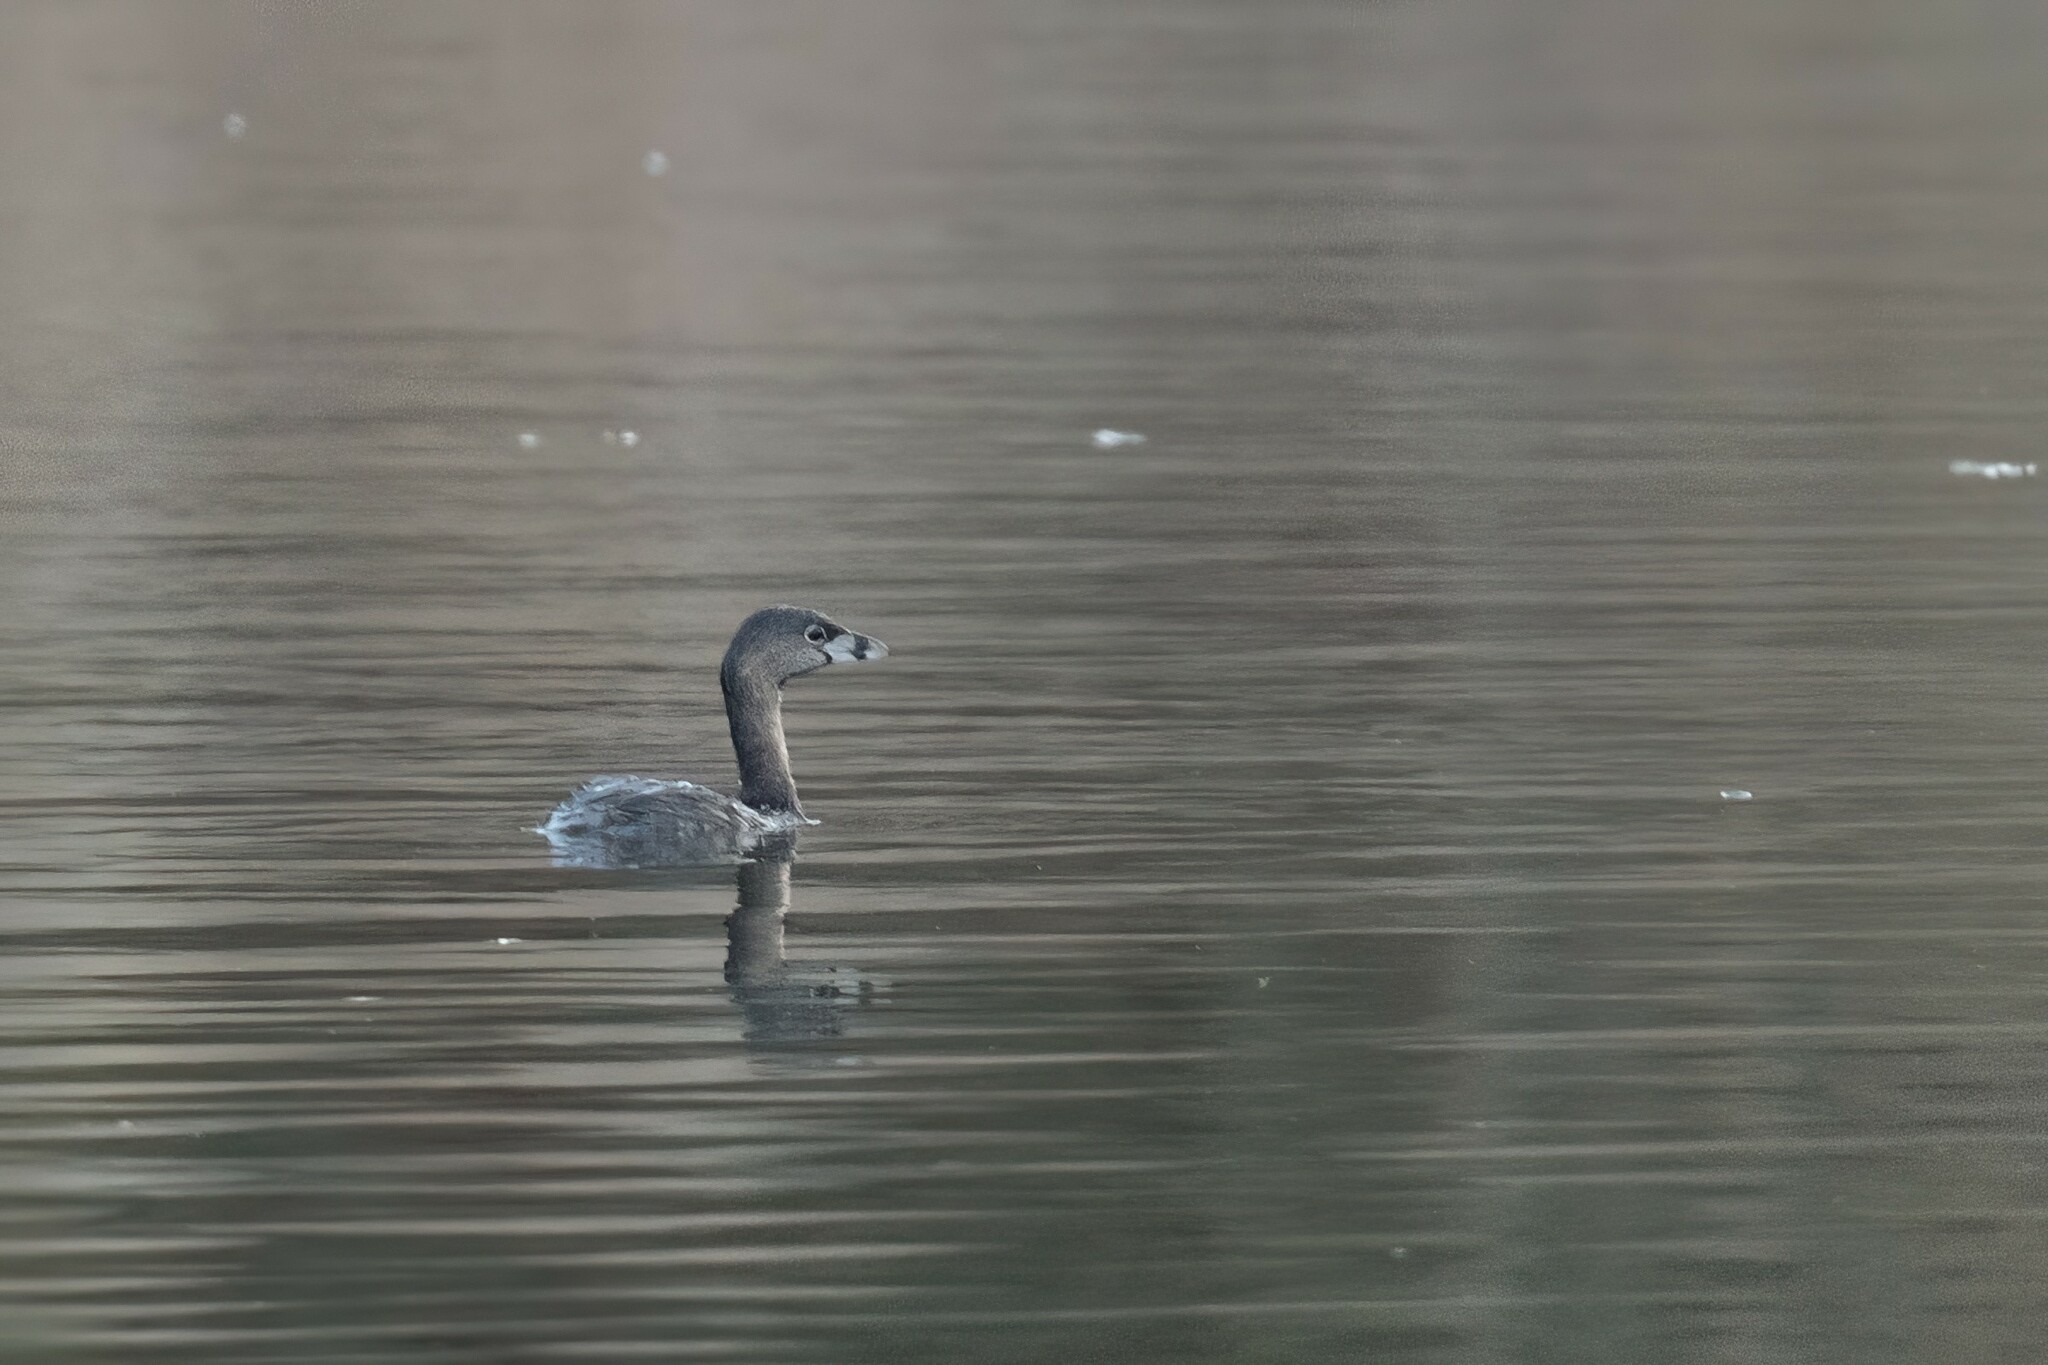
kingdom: Animalia
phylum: Chordata
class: Aves
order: Podicipediformes
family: Podicipedidae
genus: Podilymbus
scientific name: Podilymbus podiceps
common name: Pied-billed grebe
